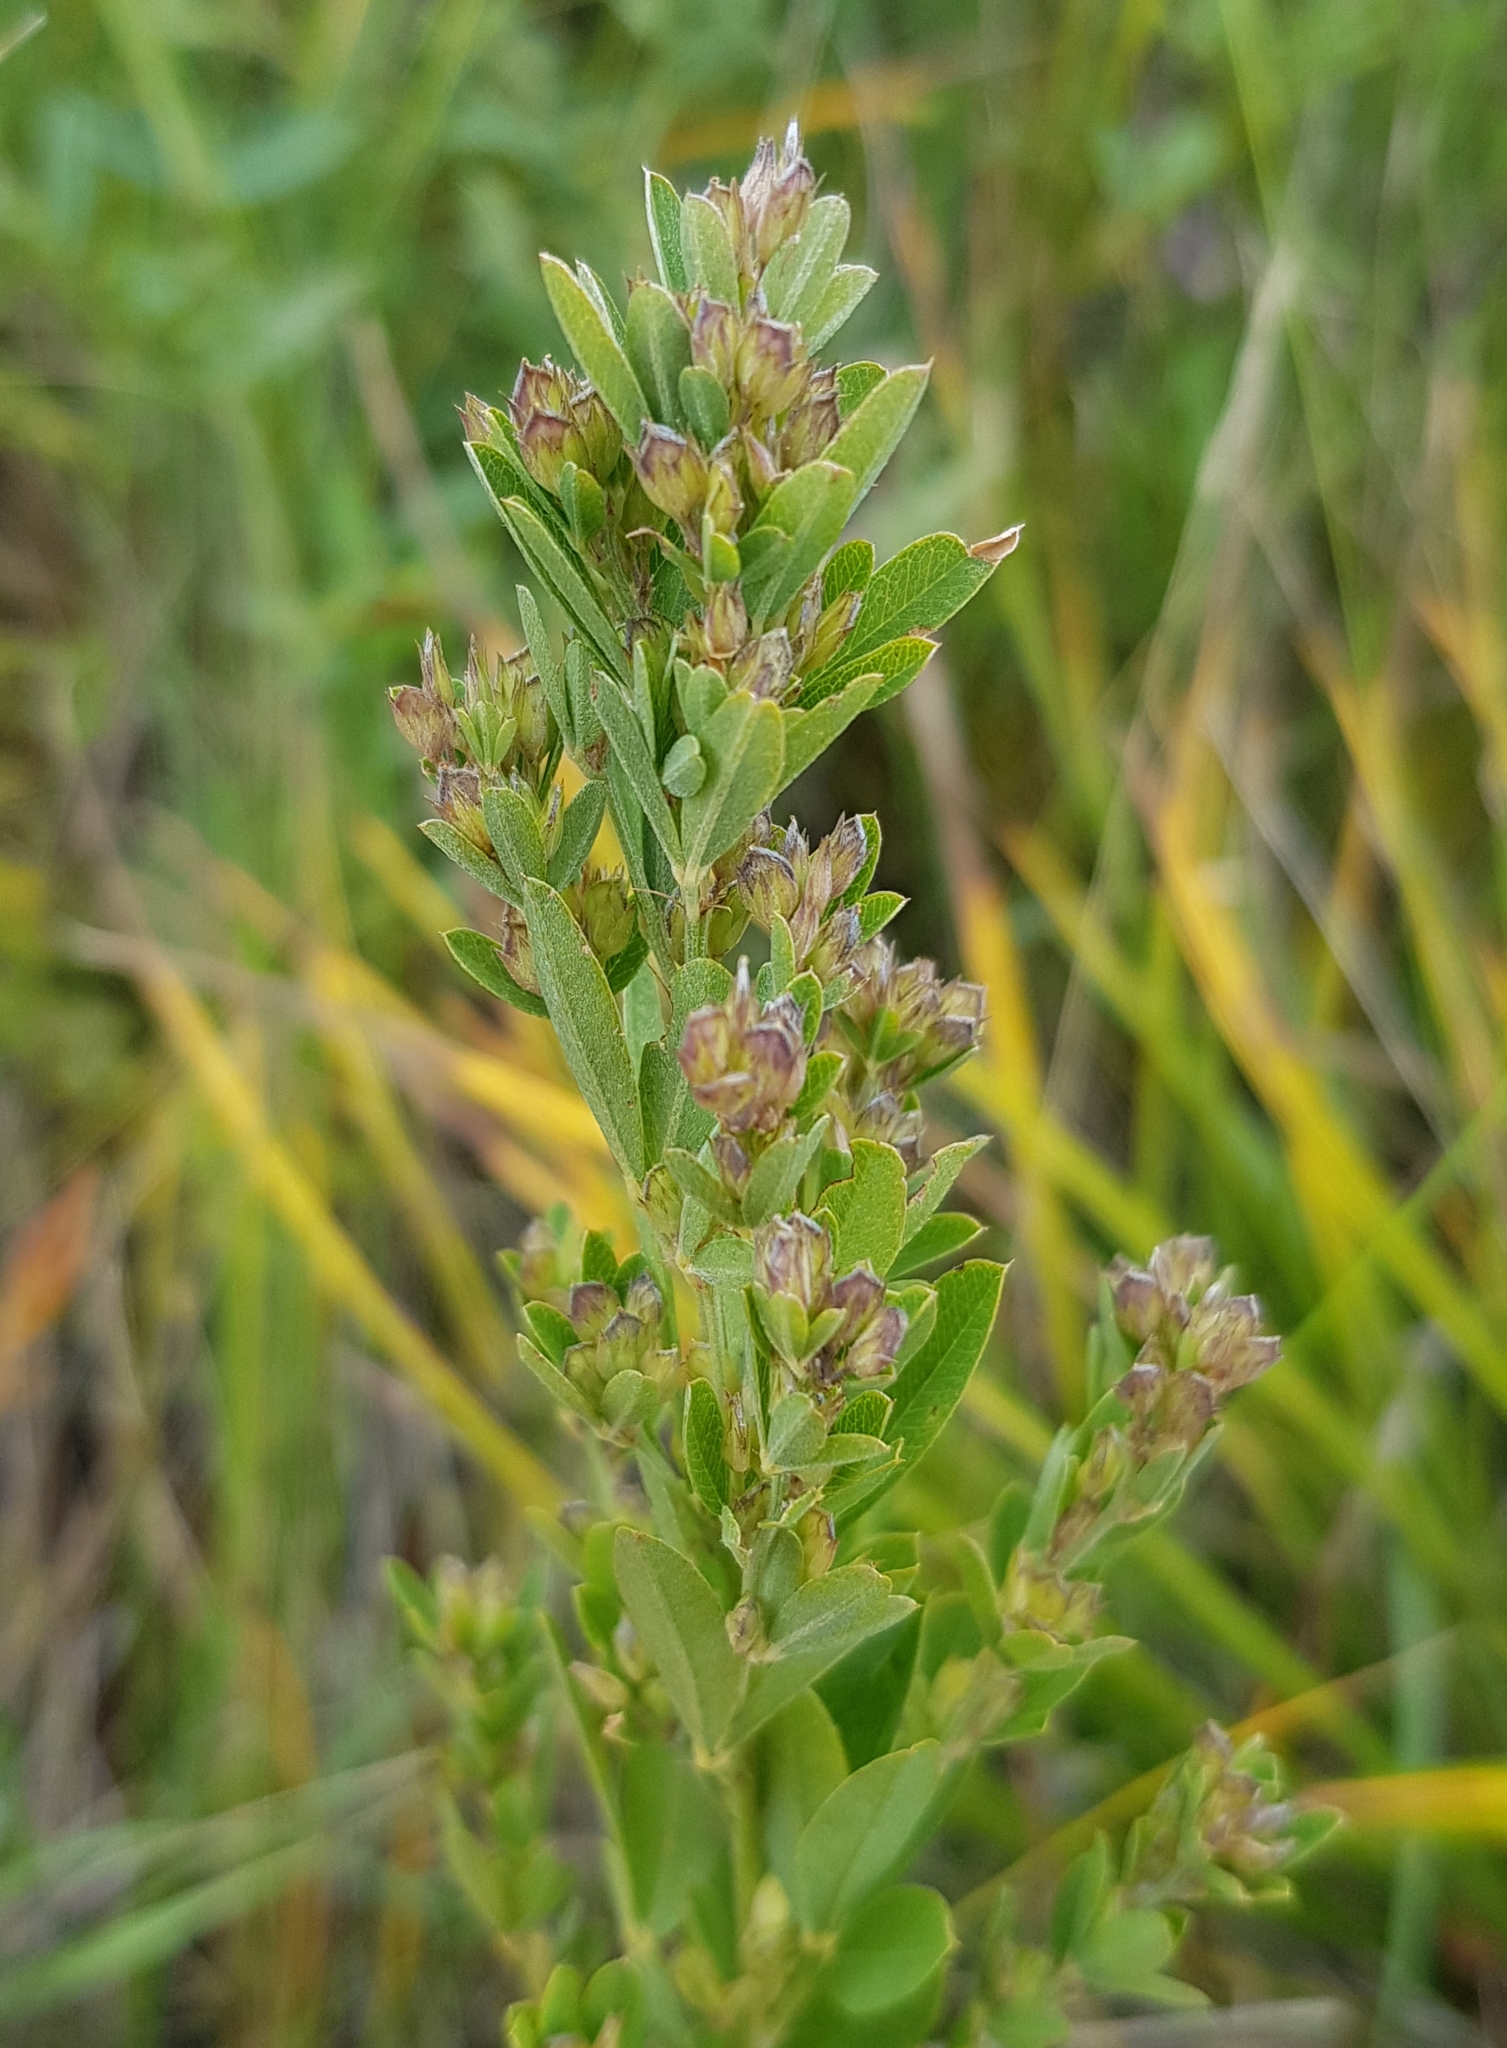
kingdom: Plantae
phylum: Tracheophyta
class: Magnoliopsida
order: Fabales
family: Fabaceae
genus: Lespedeza
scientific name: Lespedeza daurica
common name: Dahurian lespedeza
